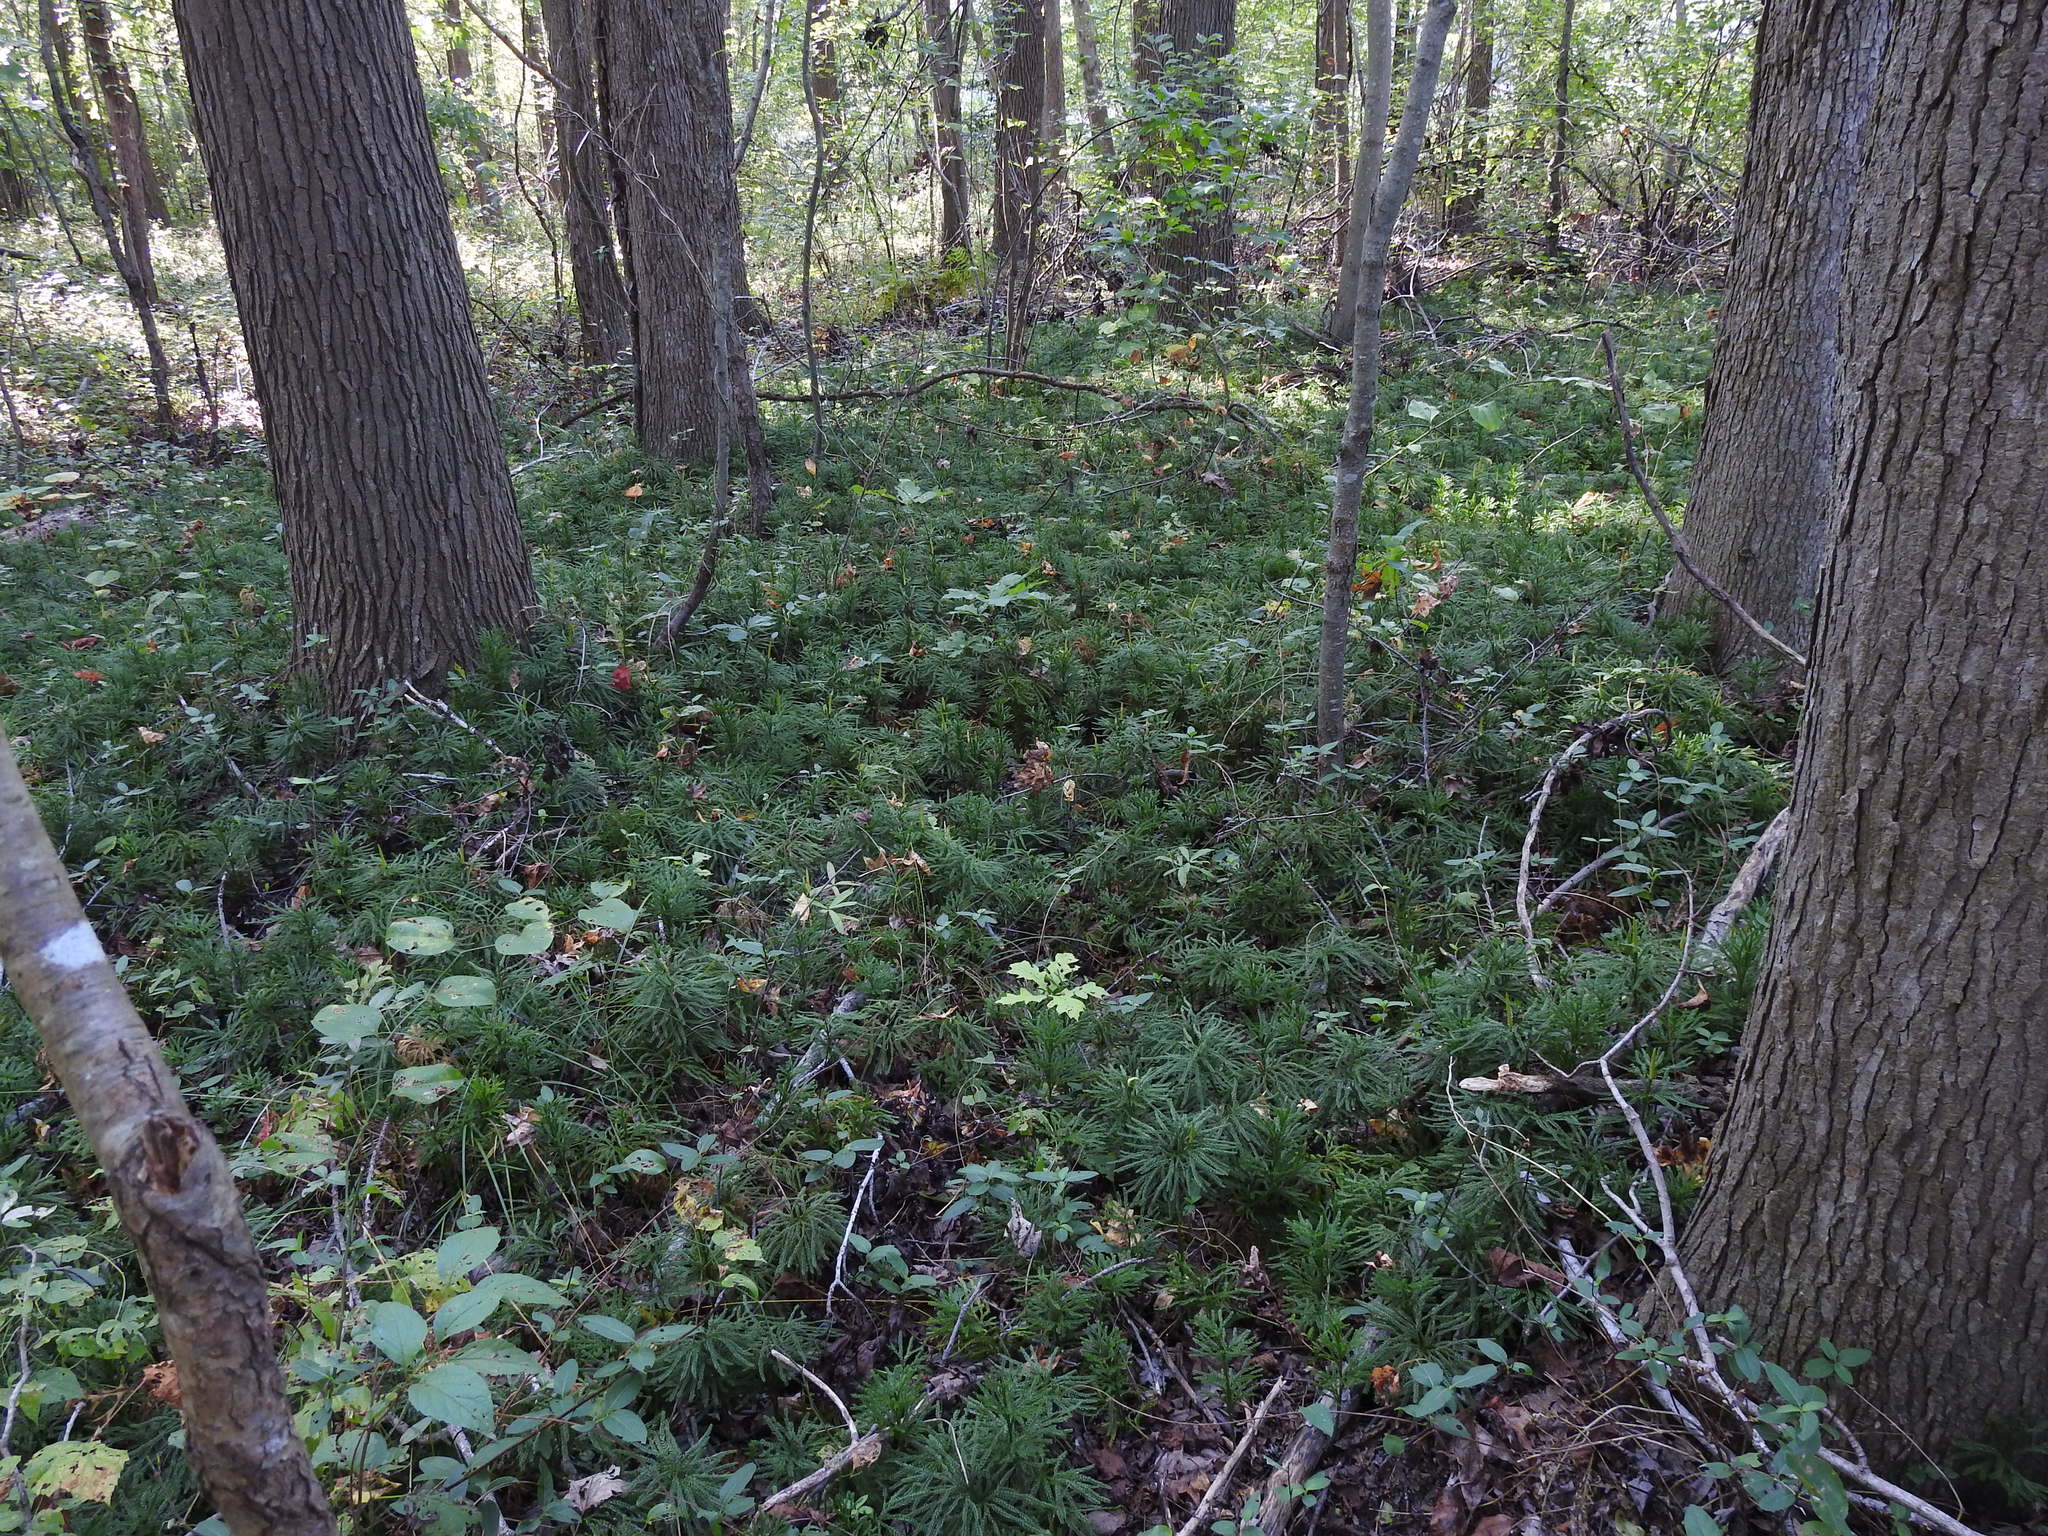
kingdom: Plantae
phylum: Tracheophyta
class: Lycopodiopsida
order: Lycopodiales
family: Lycopodiaceae
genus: Dendrolycopodium
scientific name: Dendrolycopodium obscurum
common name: Common ground-pine
